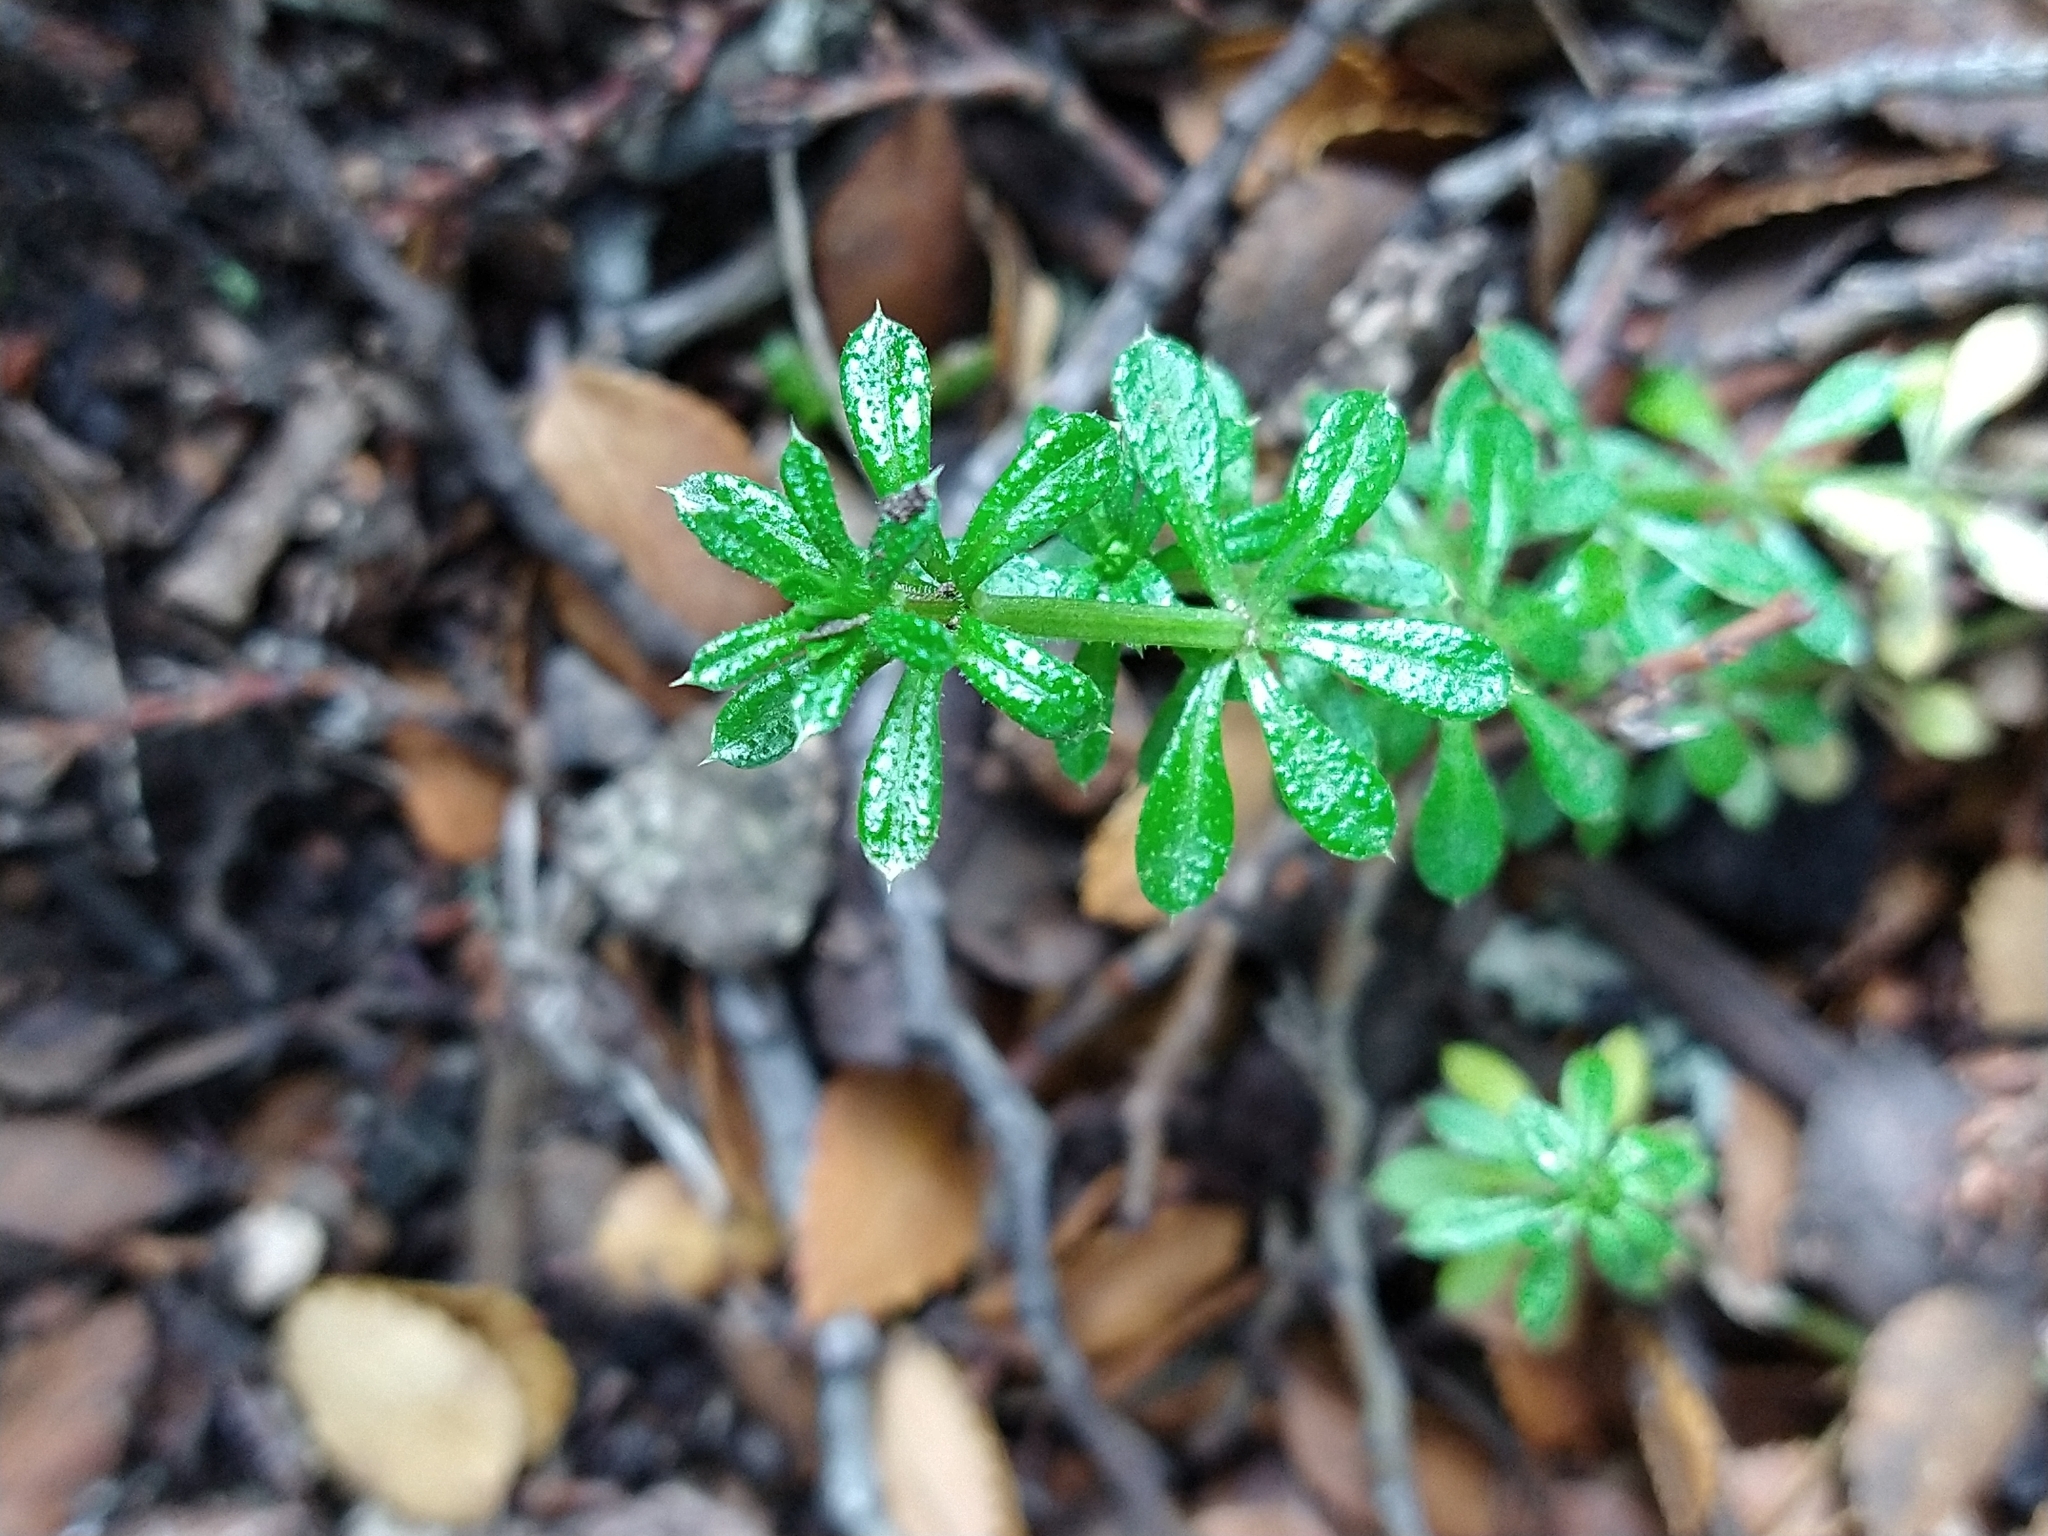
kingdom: Plantae
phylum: Tracheophyta
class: Magnoliopsida
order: Gentianales
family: Rubiaceae
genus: Galium
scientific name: Galium aparine
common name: Cleavers
